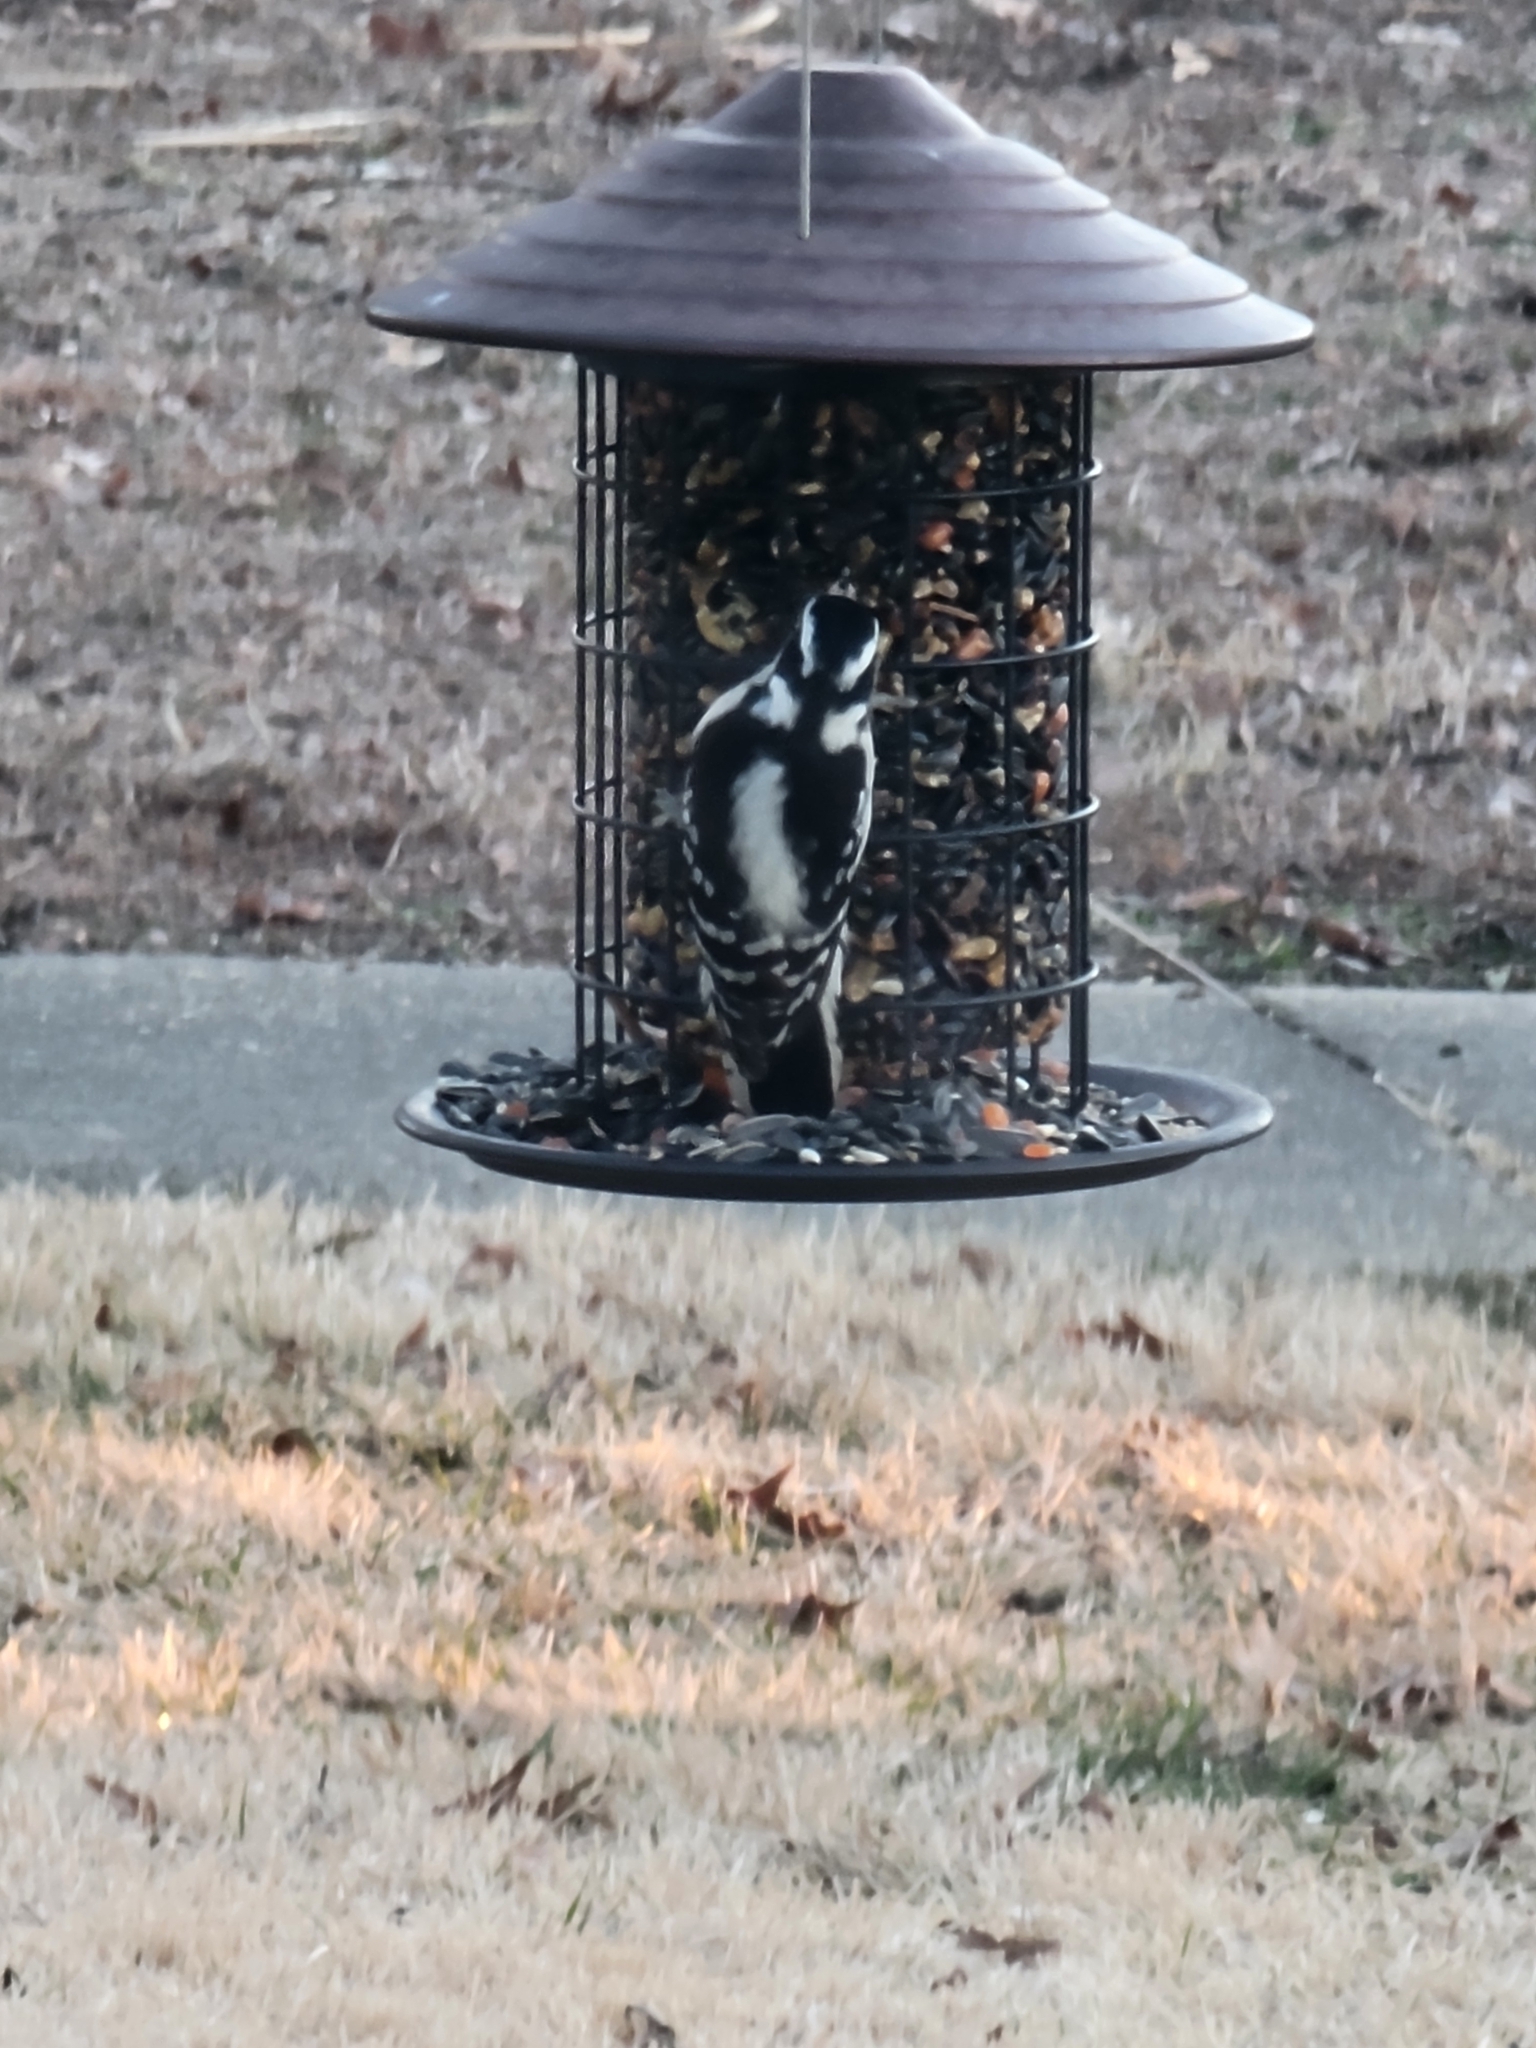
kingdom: Animalia
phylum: Chordata
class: Aves
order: Piciformes
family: Picidae
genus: Dryobates
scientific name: Dryobates pubescens
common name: Downy woodpecker
